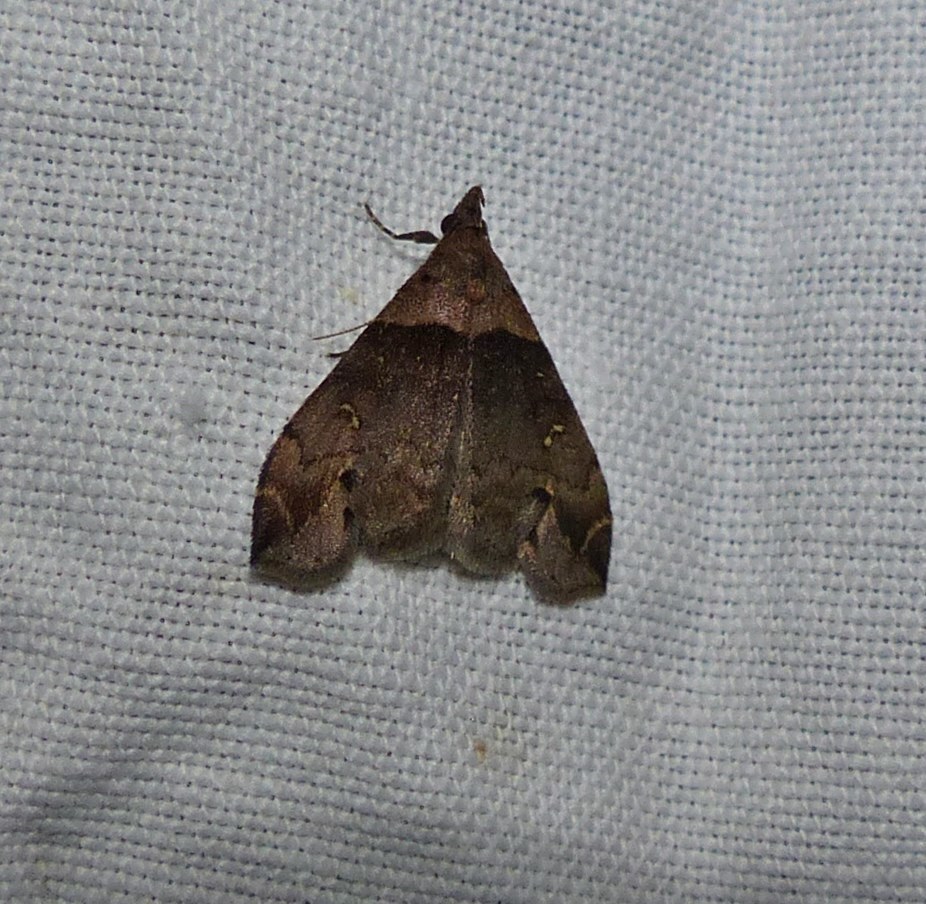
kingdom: Animalia
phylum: Arthropoda
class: Insecta
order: Lepidoptera
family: Erebidae
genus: Lascoria
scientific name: Lascoria ambigualis
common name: Ambiguous moth
